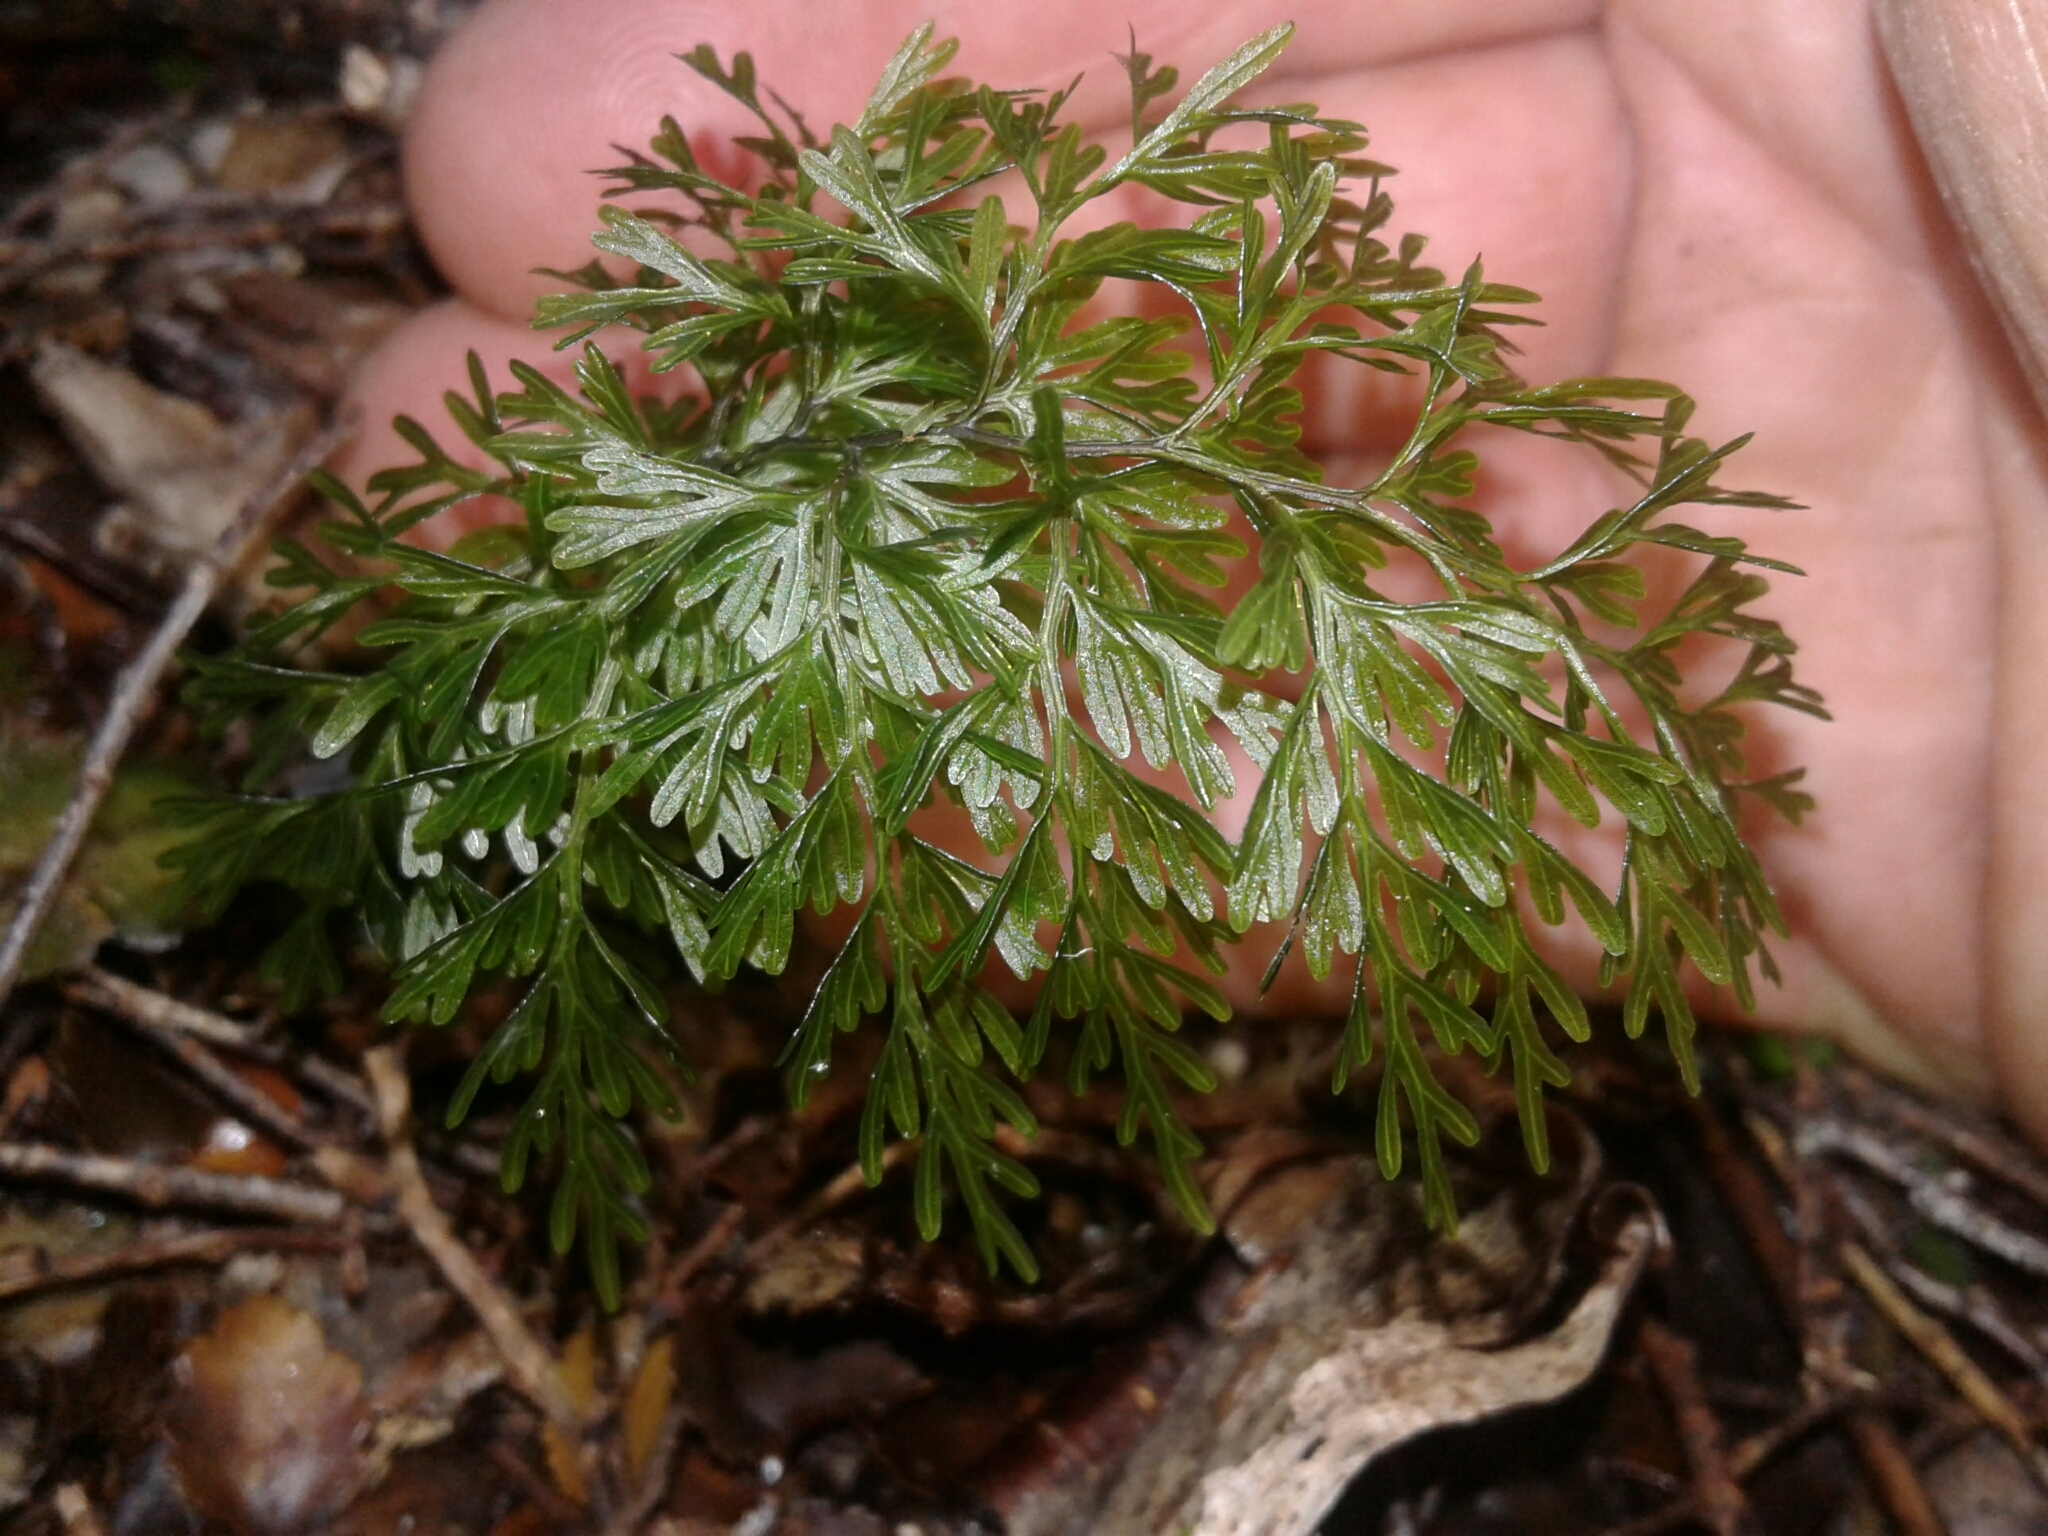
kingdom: Plantae
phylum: Tracheophyta
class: Polypodiopsida
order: Hymenophyllales
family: Hymenophyllaceae
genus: Hymenophyllum
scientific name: Hymenophyllum demissum
